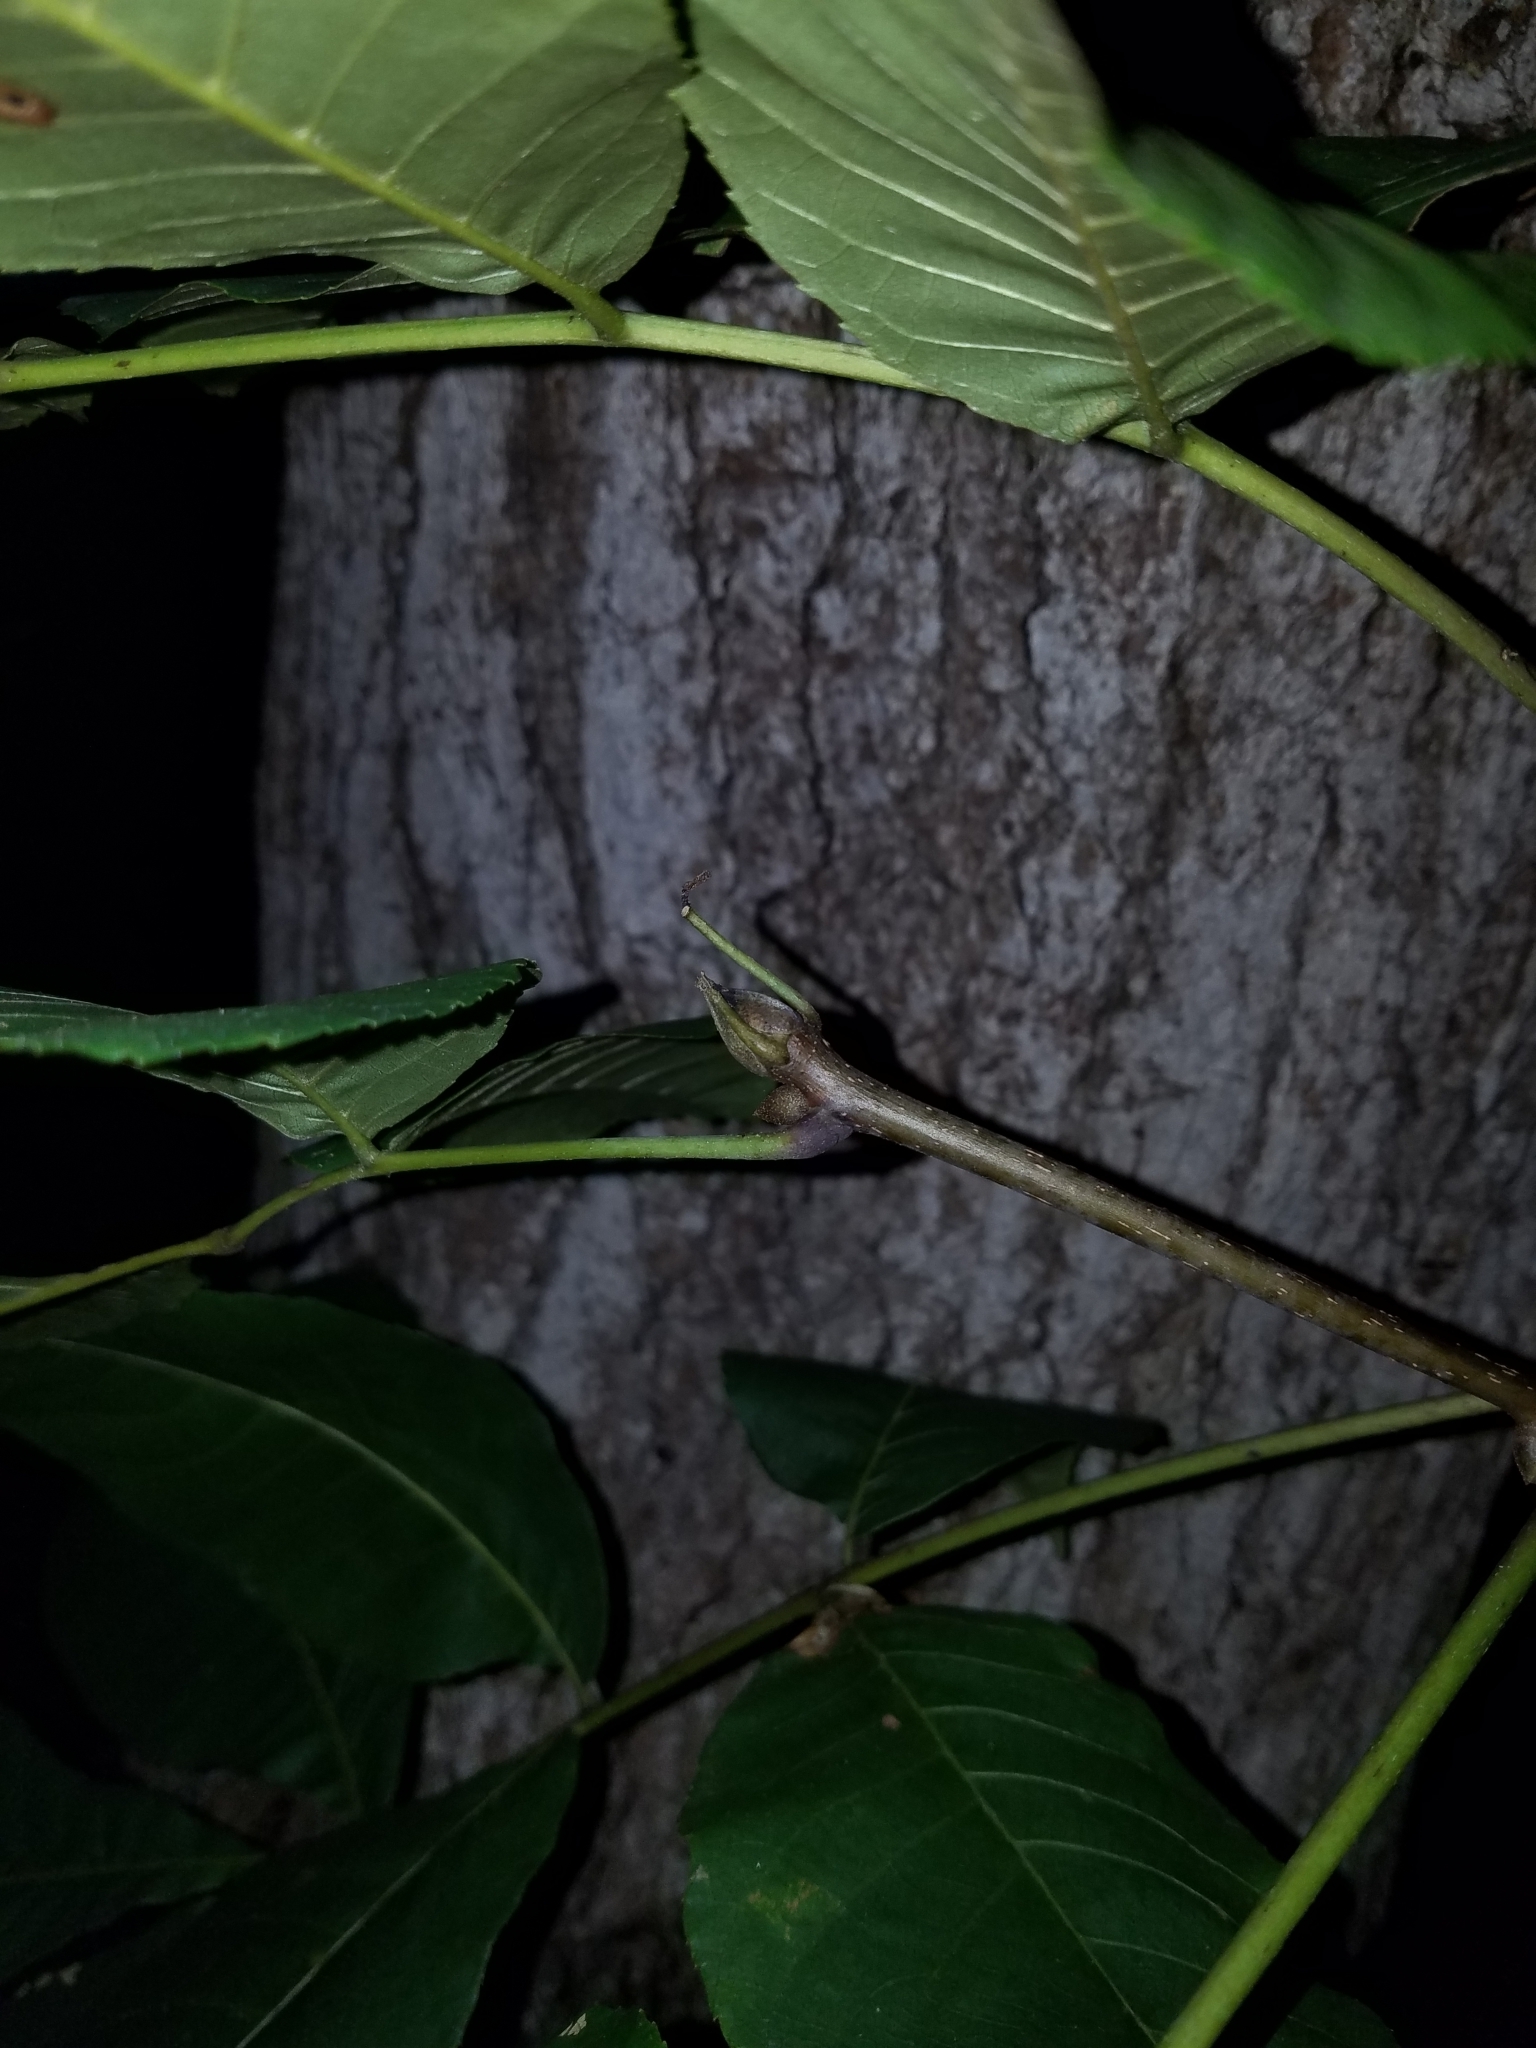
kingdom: Plantae
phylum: Tracheophyta
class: Magnoliopsida
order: Fagales
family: Juglandaceae
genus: Carya
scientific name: Carya alba
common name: Mockernut hickory
